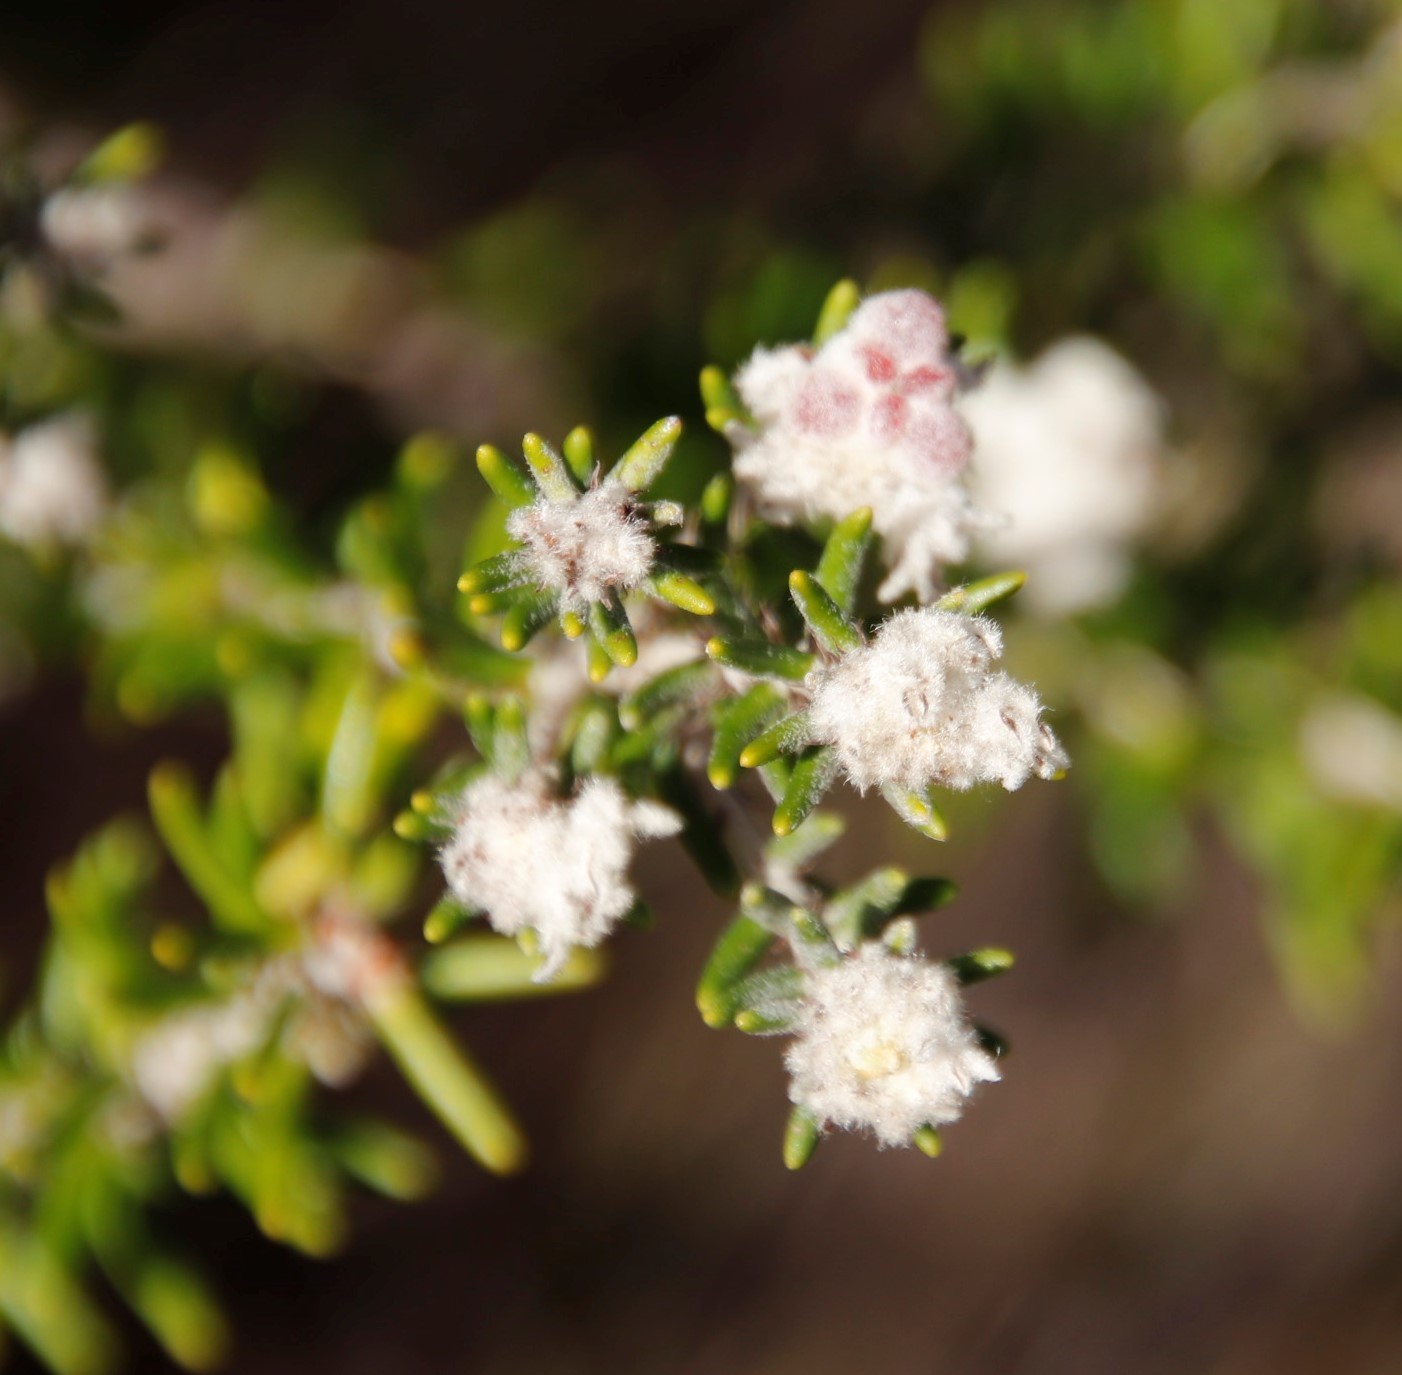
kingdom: Plantae
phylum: Tracheophyta
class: Magnoliopsida
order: Rosales
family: Rhamnaceae
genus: Trichocephalus
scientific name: Trichocephalus stipularis
